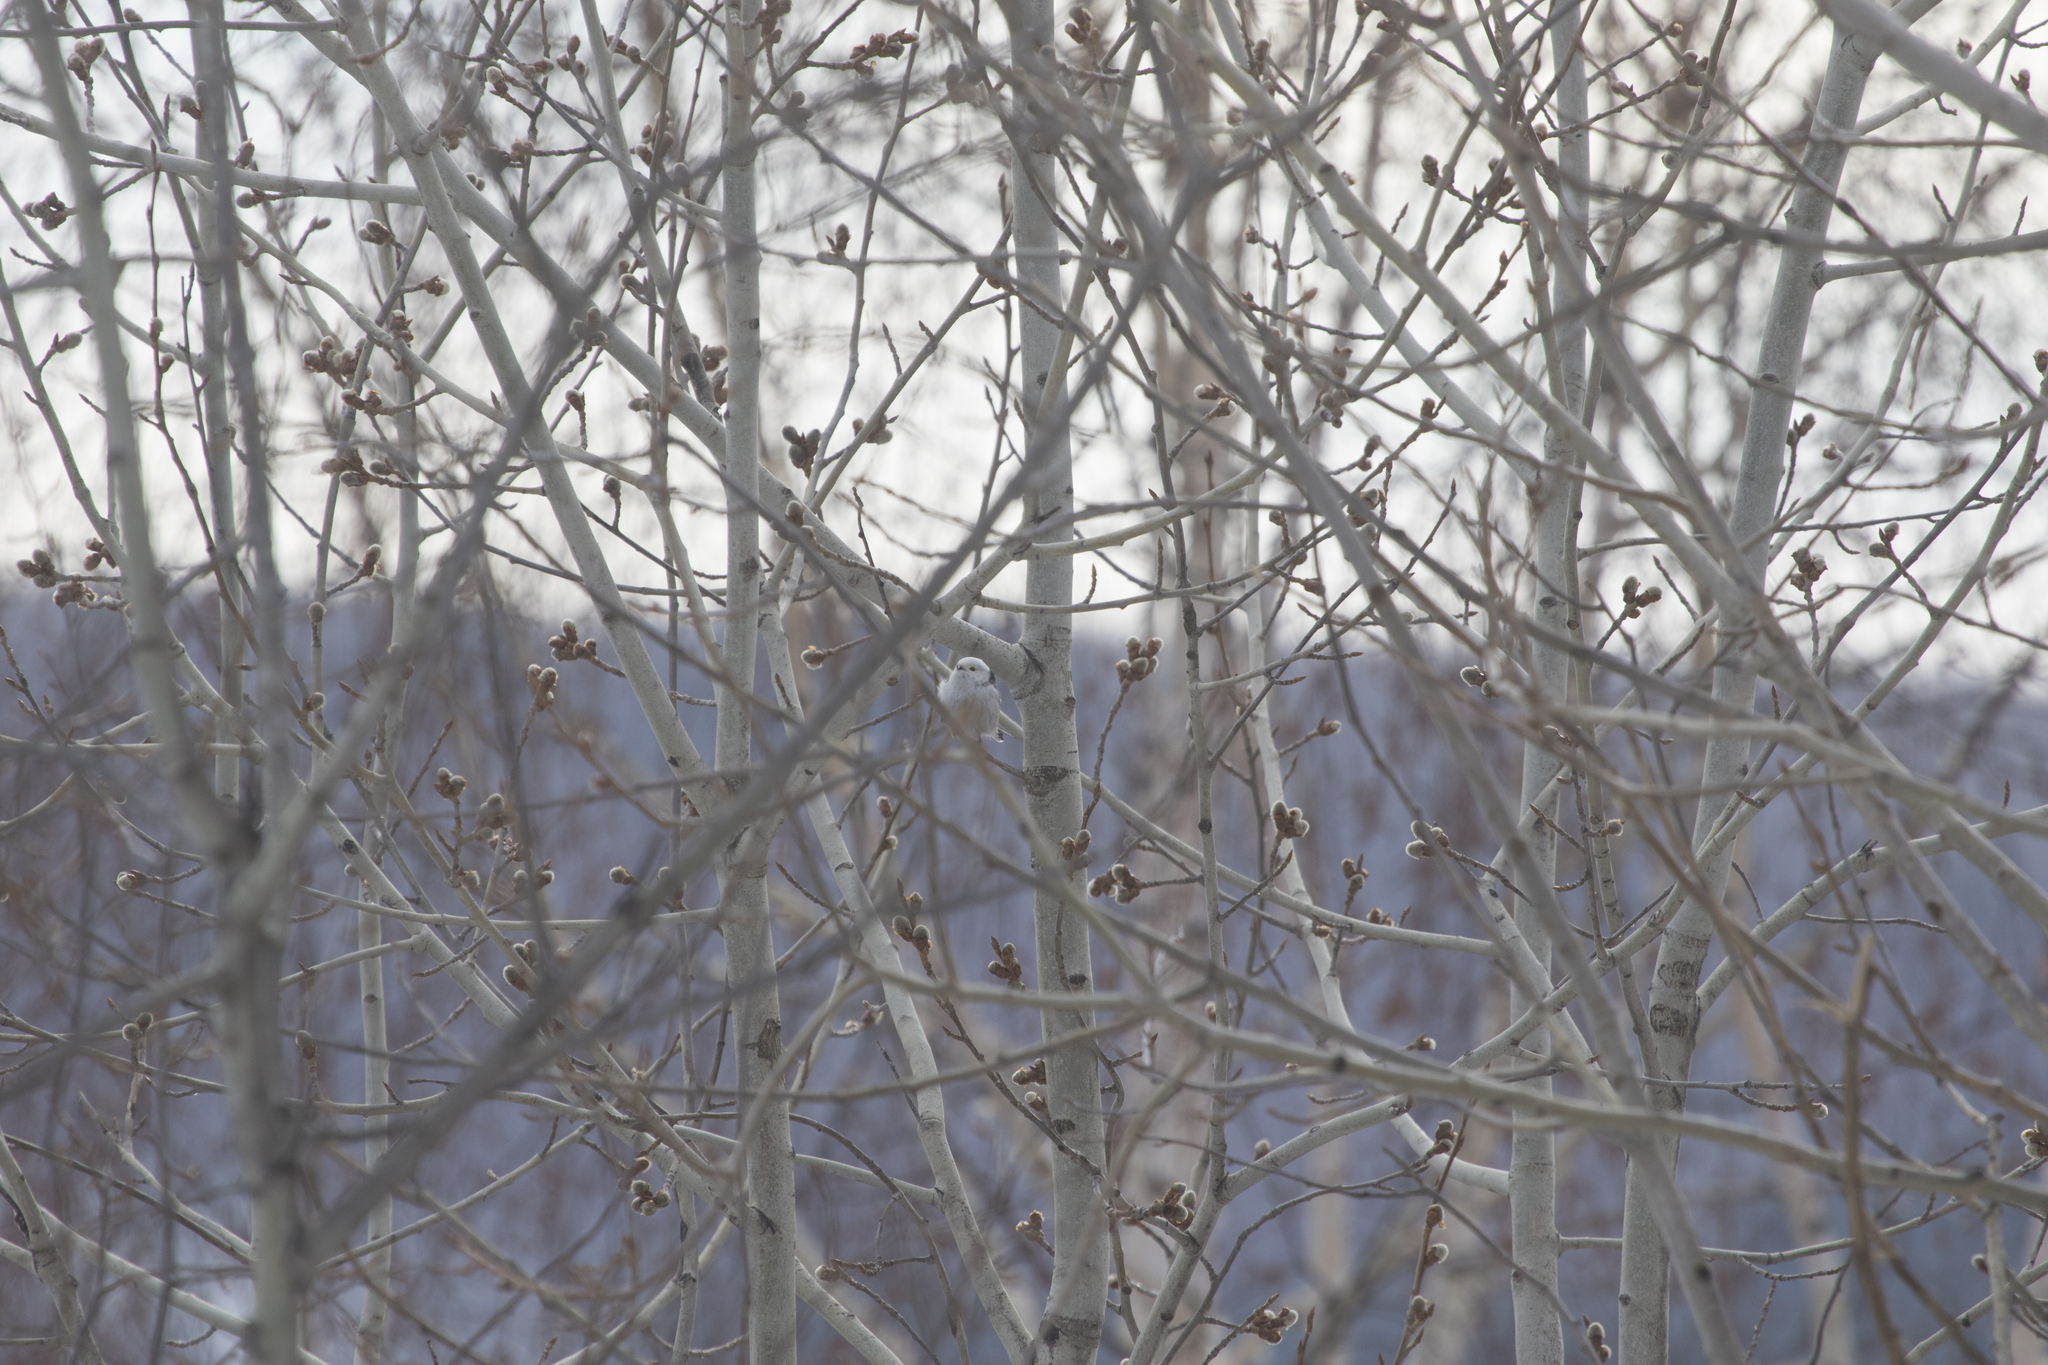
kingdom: Animalia
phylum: Chordata
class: Aves
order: Passeriformes
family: Aegithalidae
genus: Aegithalos
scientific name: Aegithalos caudatus
